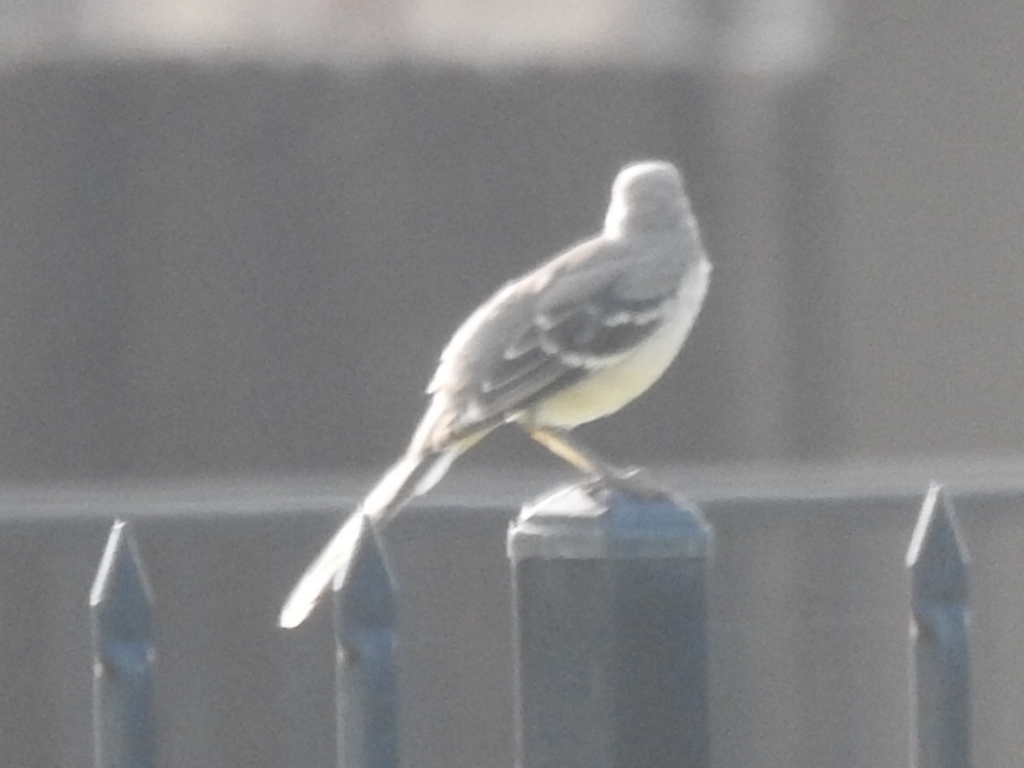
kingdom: Animalia
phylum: Chordata
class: Aves
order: Passeriformes
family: Mimidae
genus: Mimus
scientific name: Mimus polyglottos
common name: Northern mockingbird
